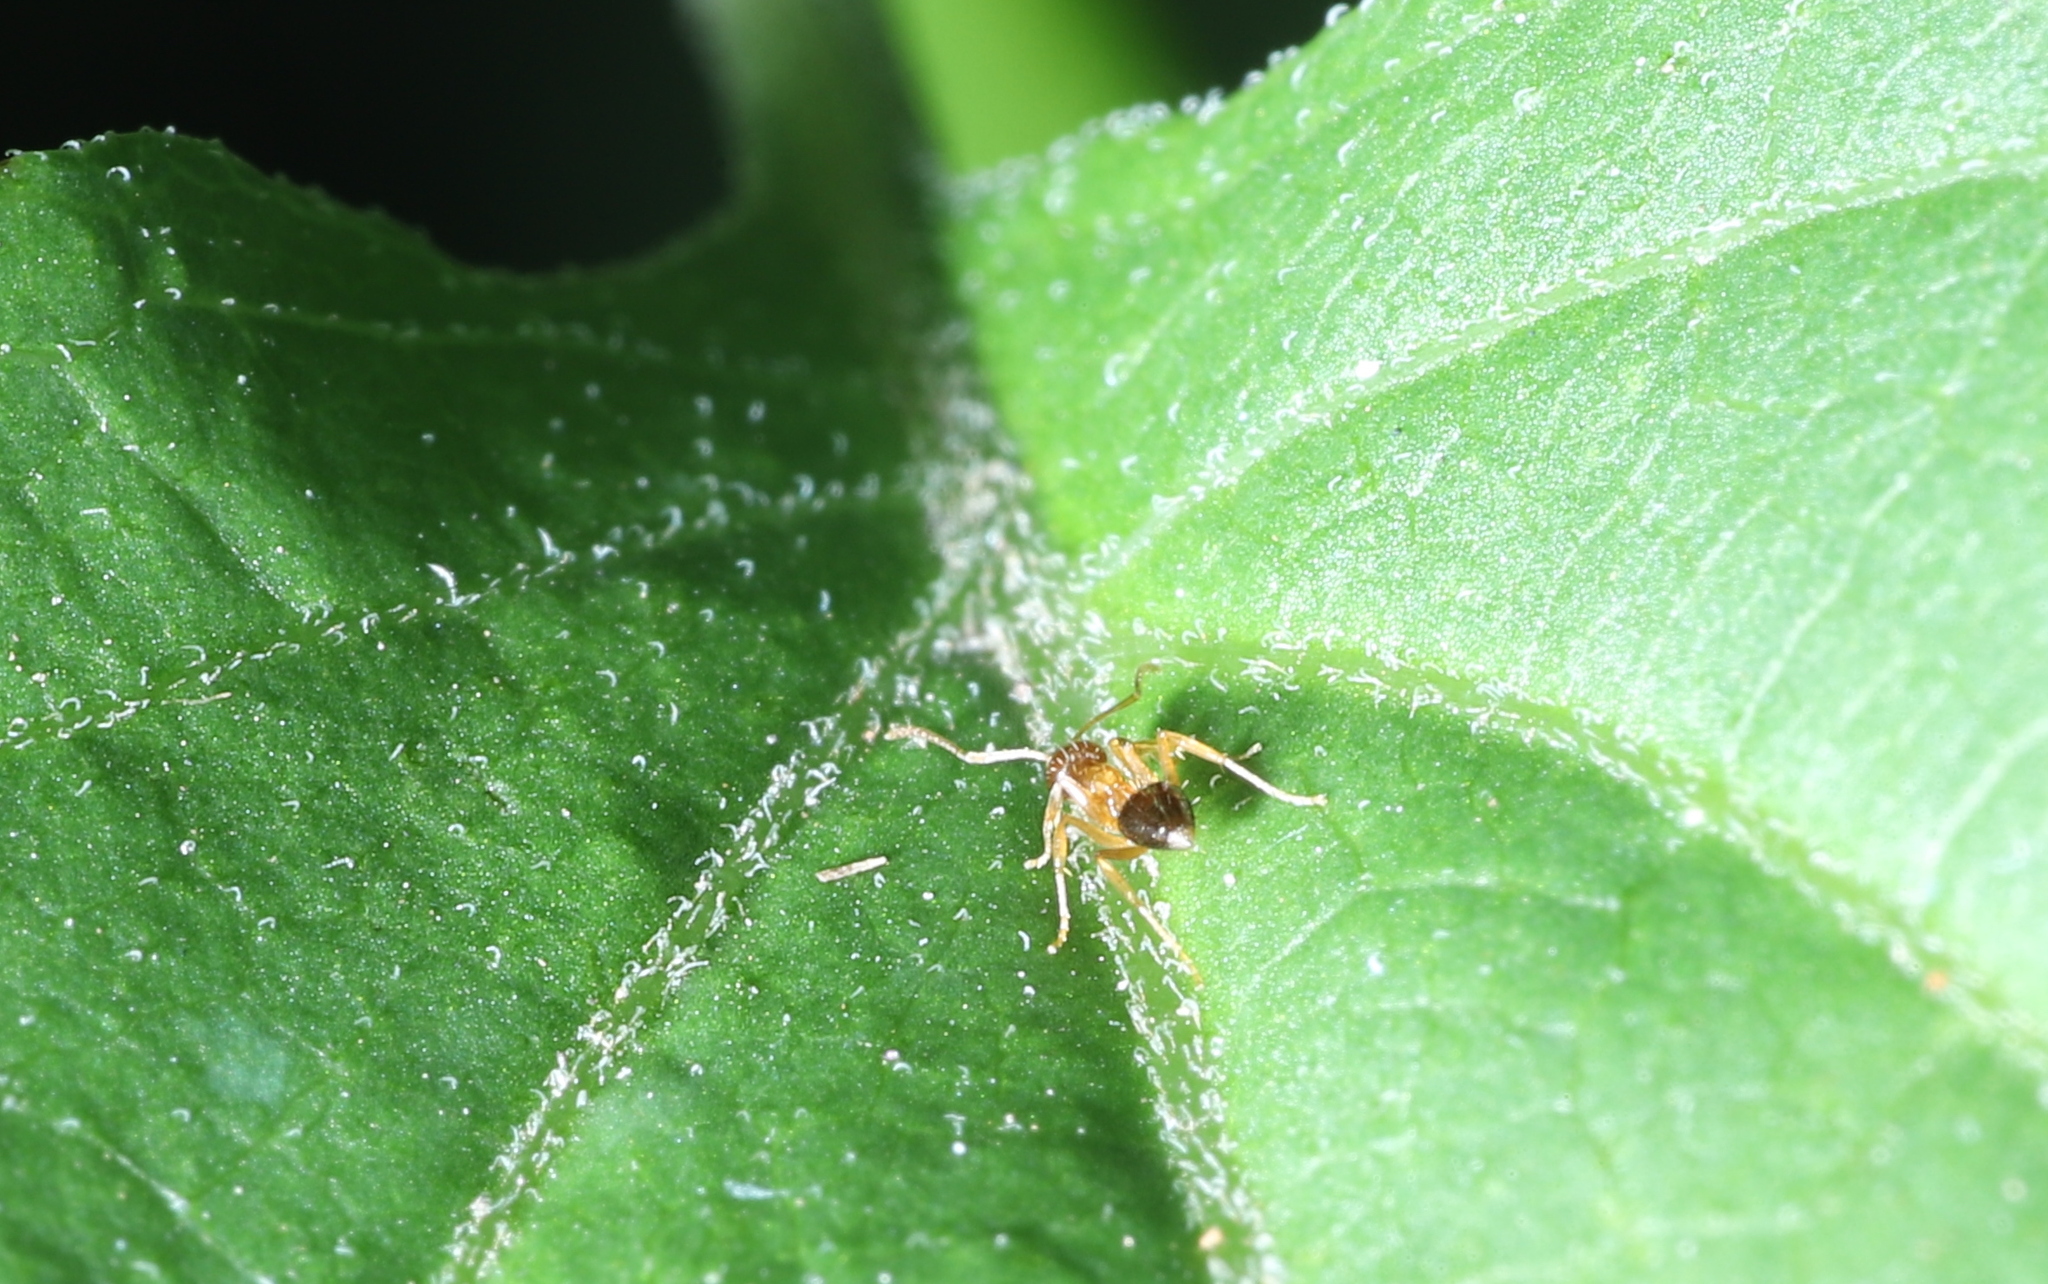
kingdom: Animalia
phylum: Arthropoda
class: Insecta
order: Hymenoptera
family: Formicidae
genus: Paratrechina
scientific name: Paratrechina flavipes
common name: Eastern asian formicine ant
